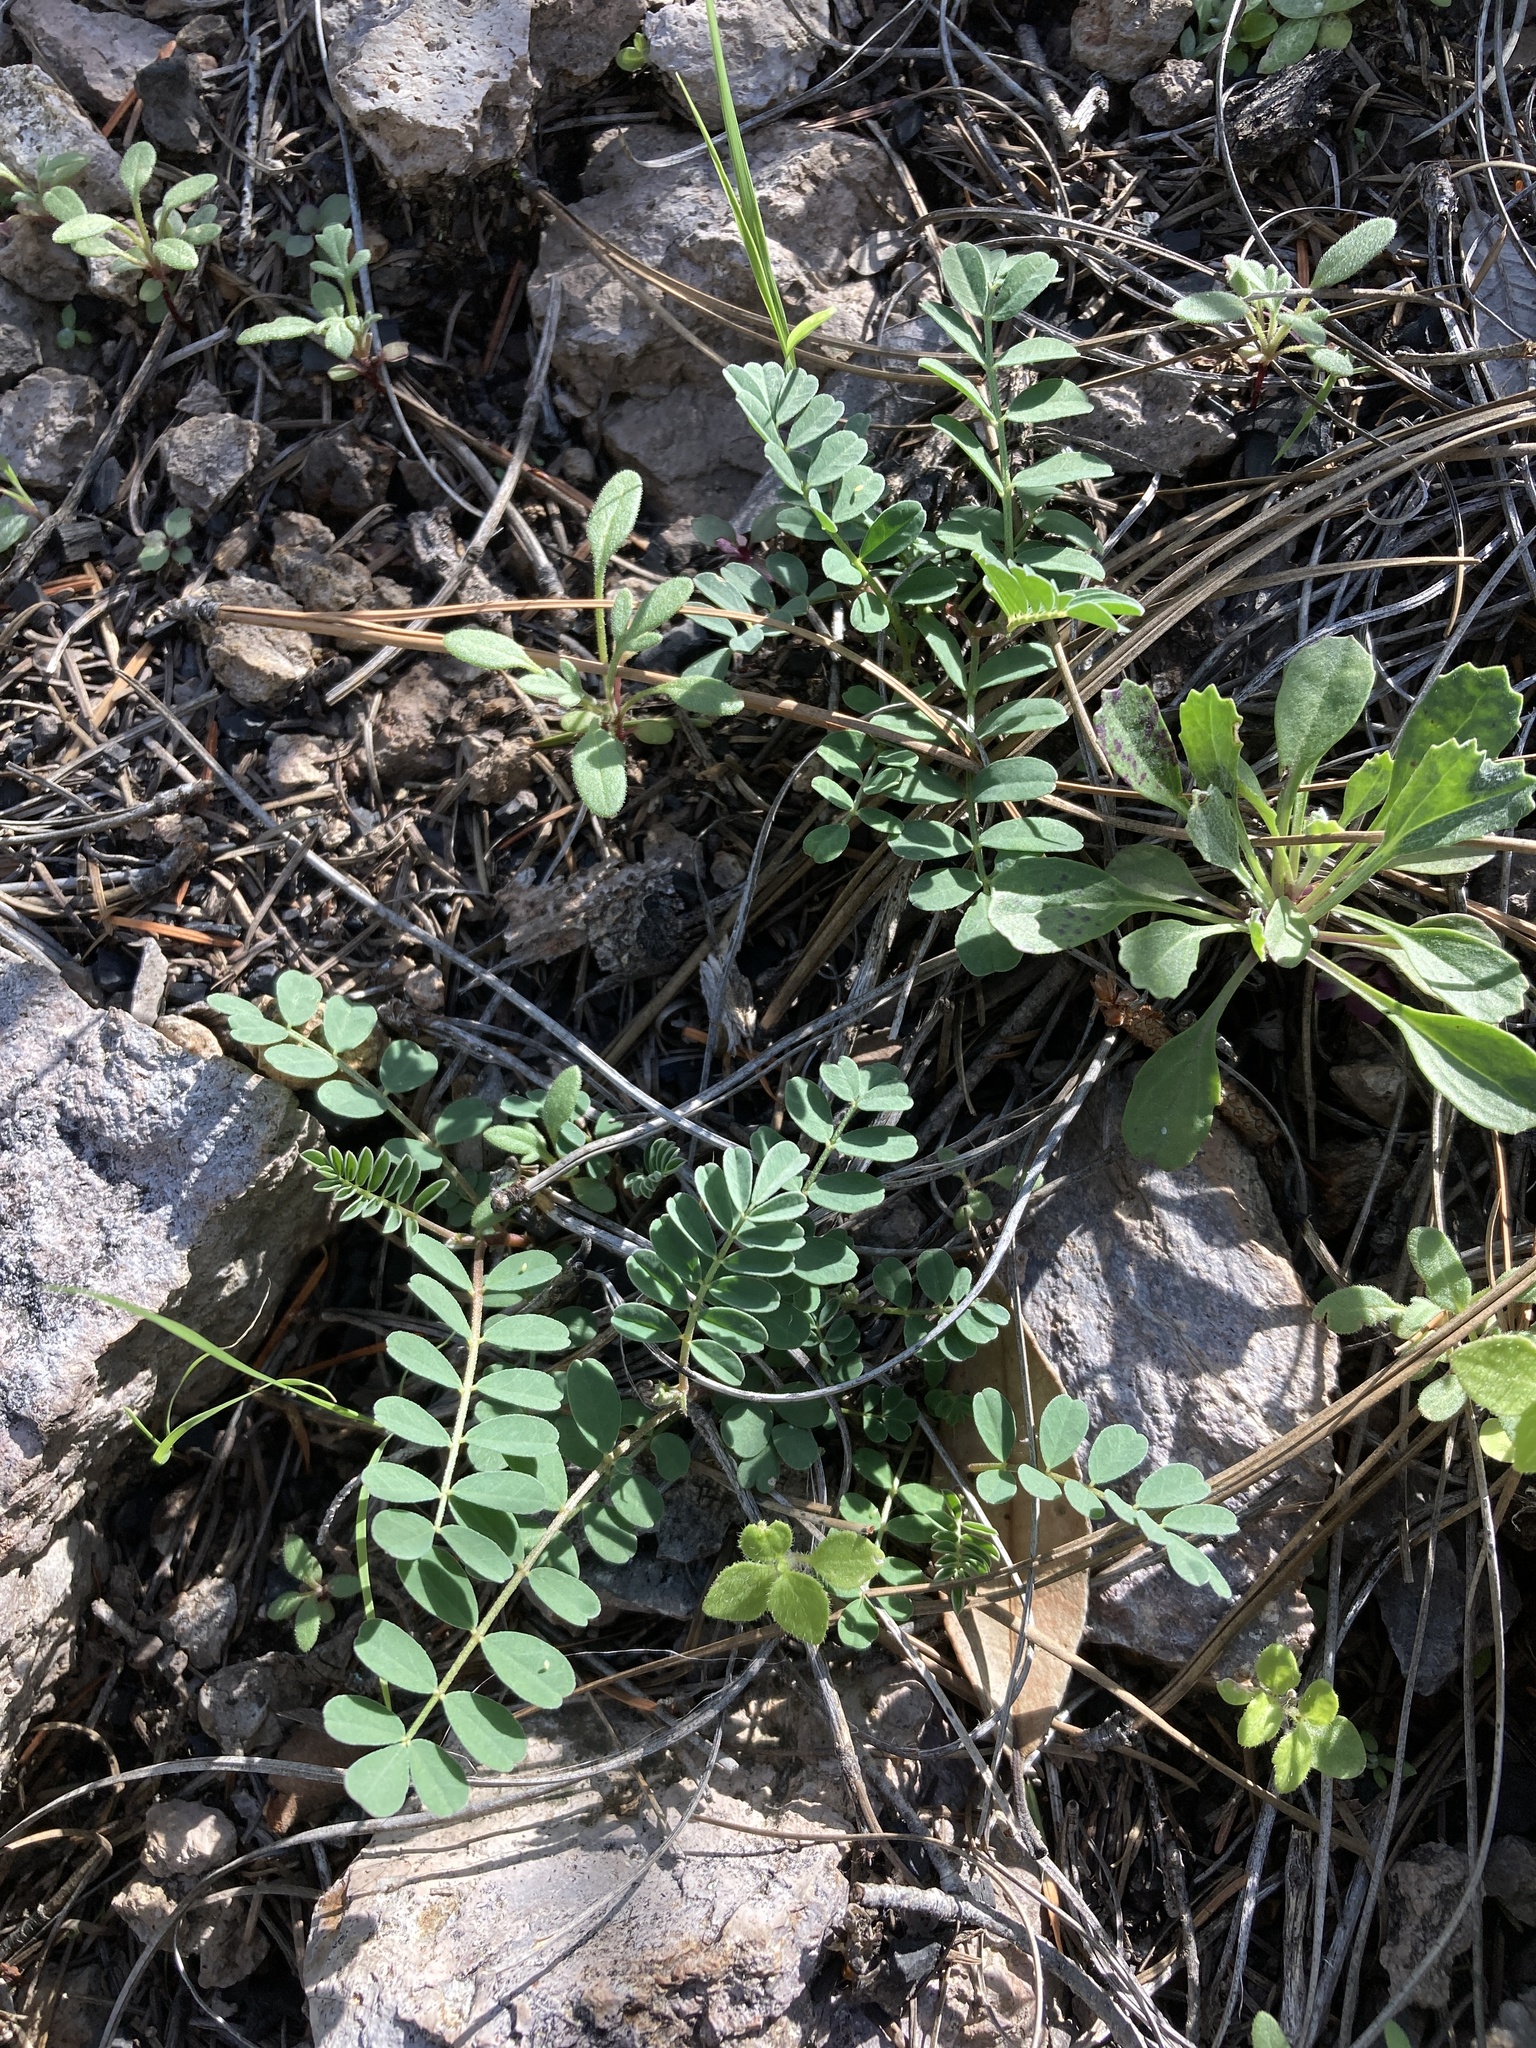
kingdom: Plantae
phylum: Tracheophyta
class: Magnoliopsida
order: Fabales
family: Fabaceae
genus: Astragalus
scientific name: Astragalus cobrensis
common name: Copper mine milkvetch
